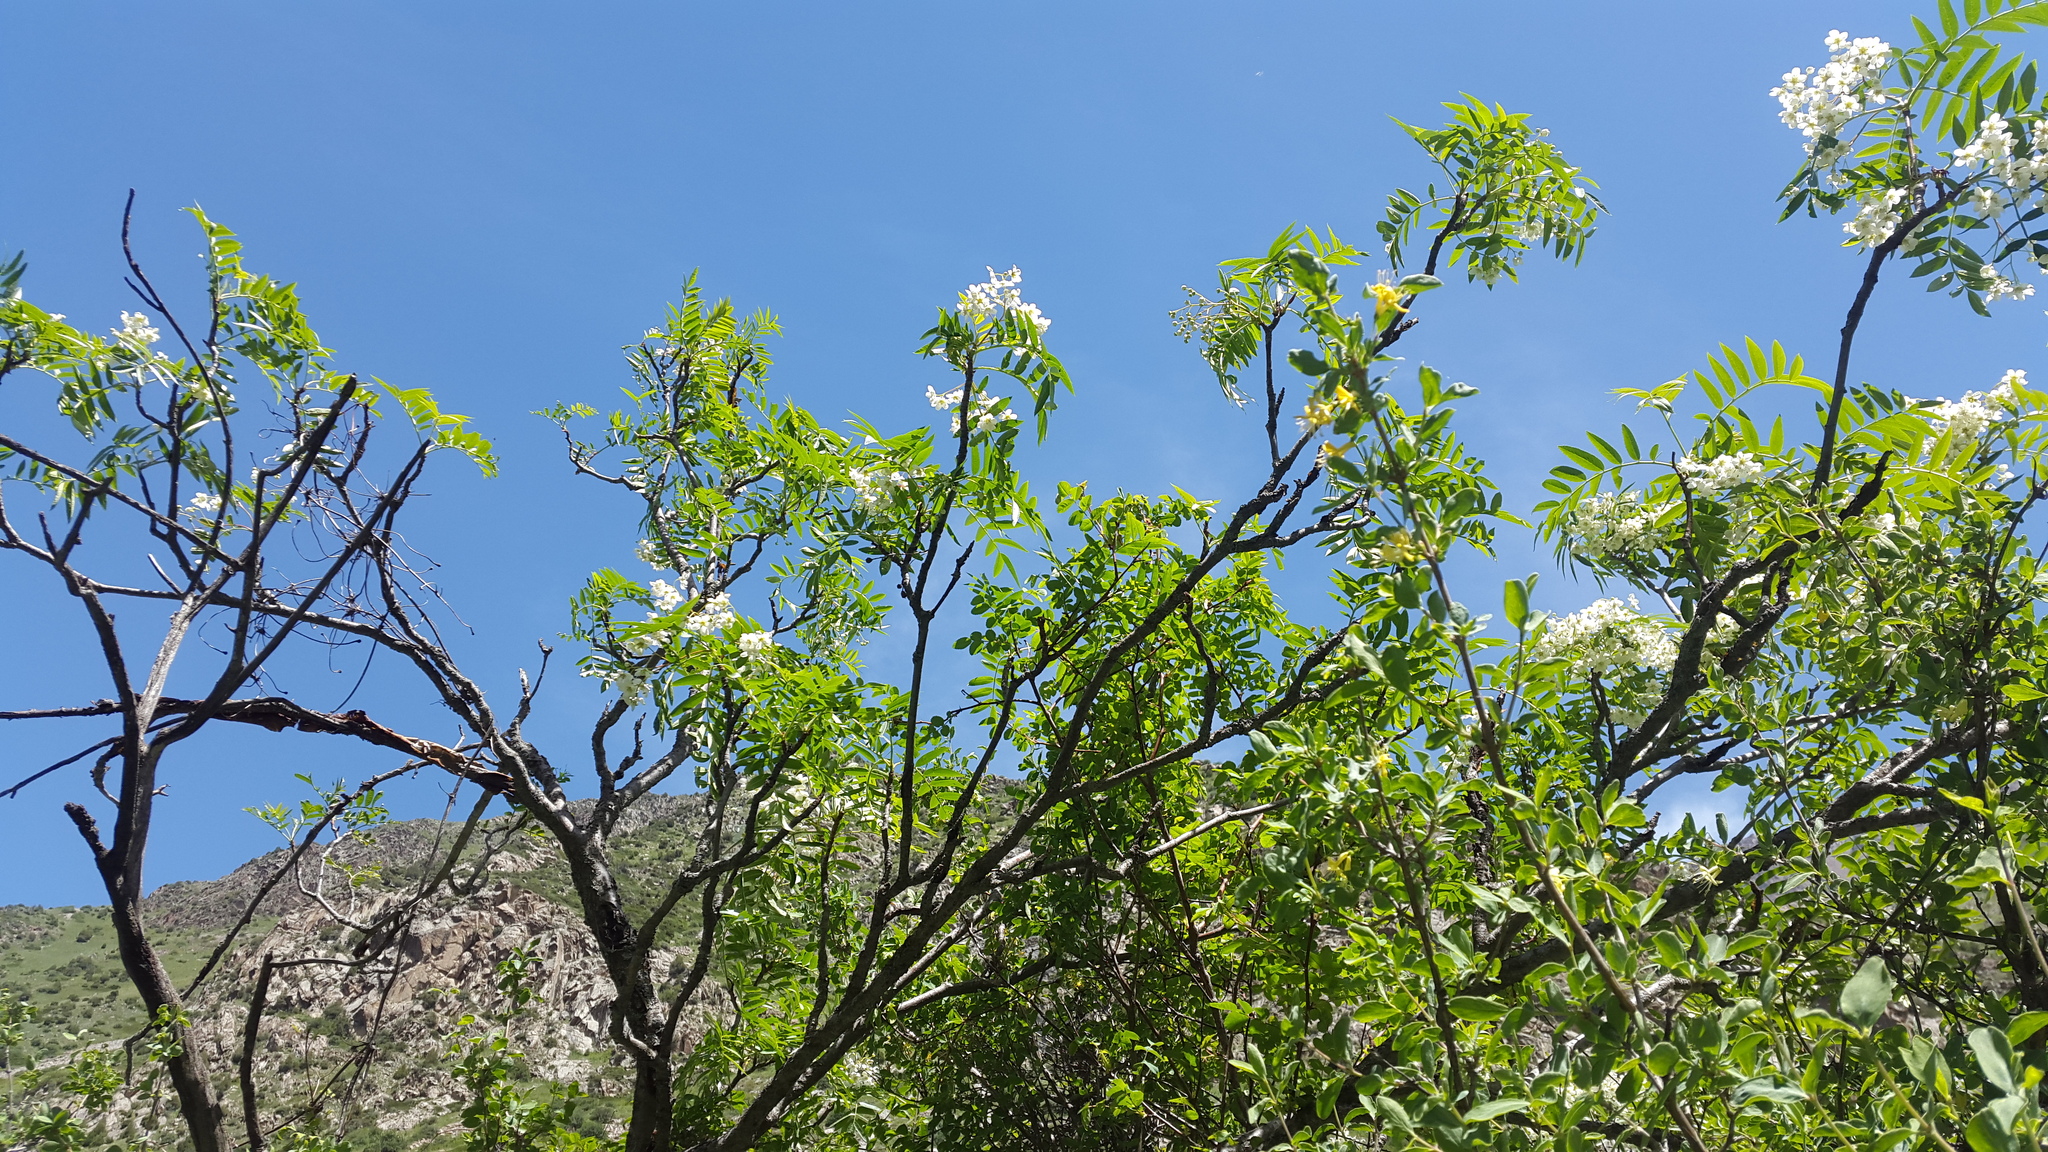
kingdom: Plantae
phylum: Tracheophyta
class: Magnoliopsida
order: Rosales
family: Rosaceae
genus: Sorbus
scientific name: Sorbus tianschanica
